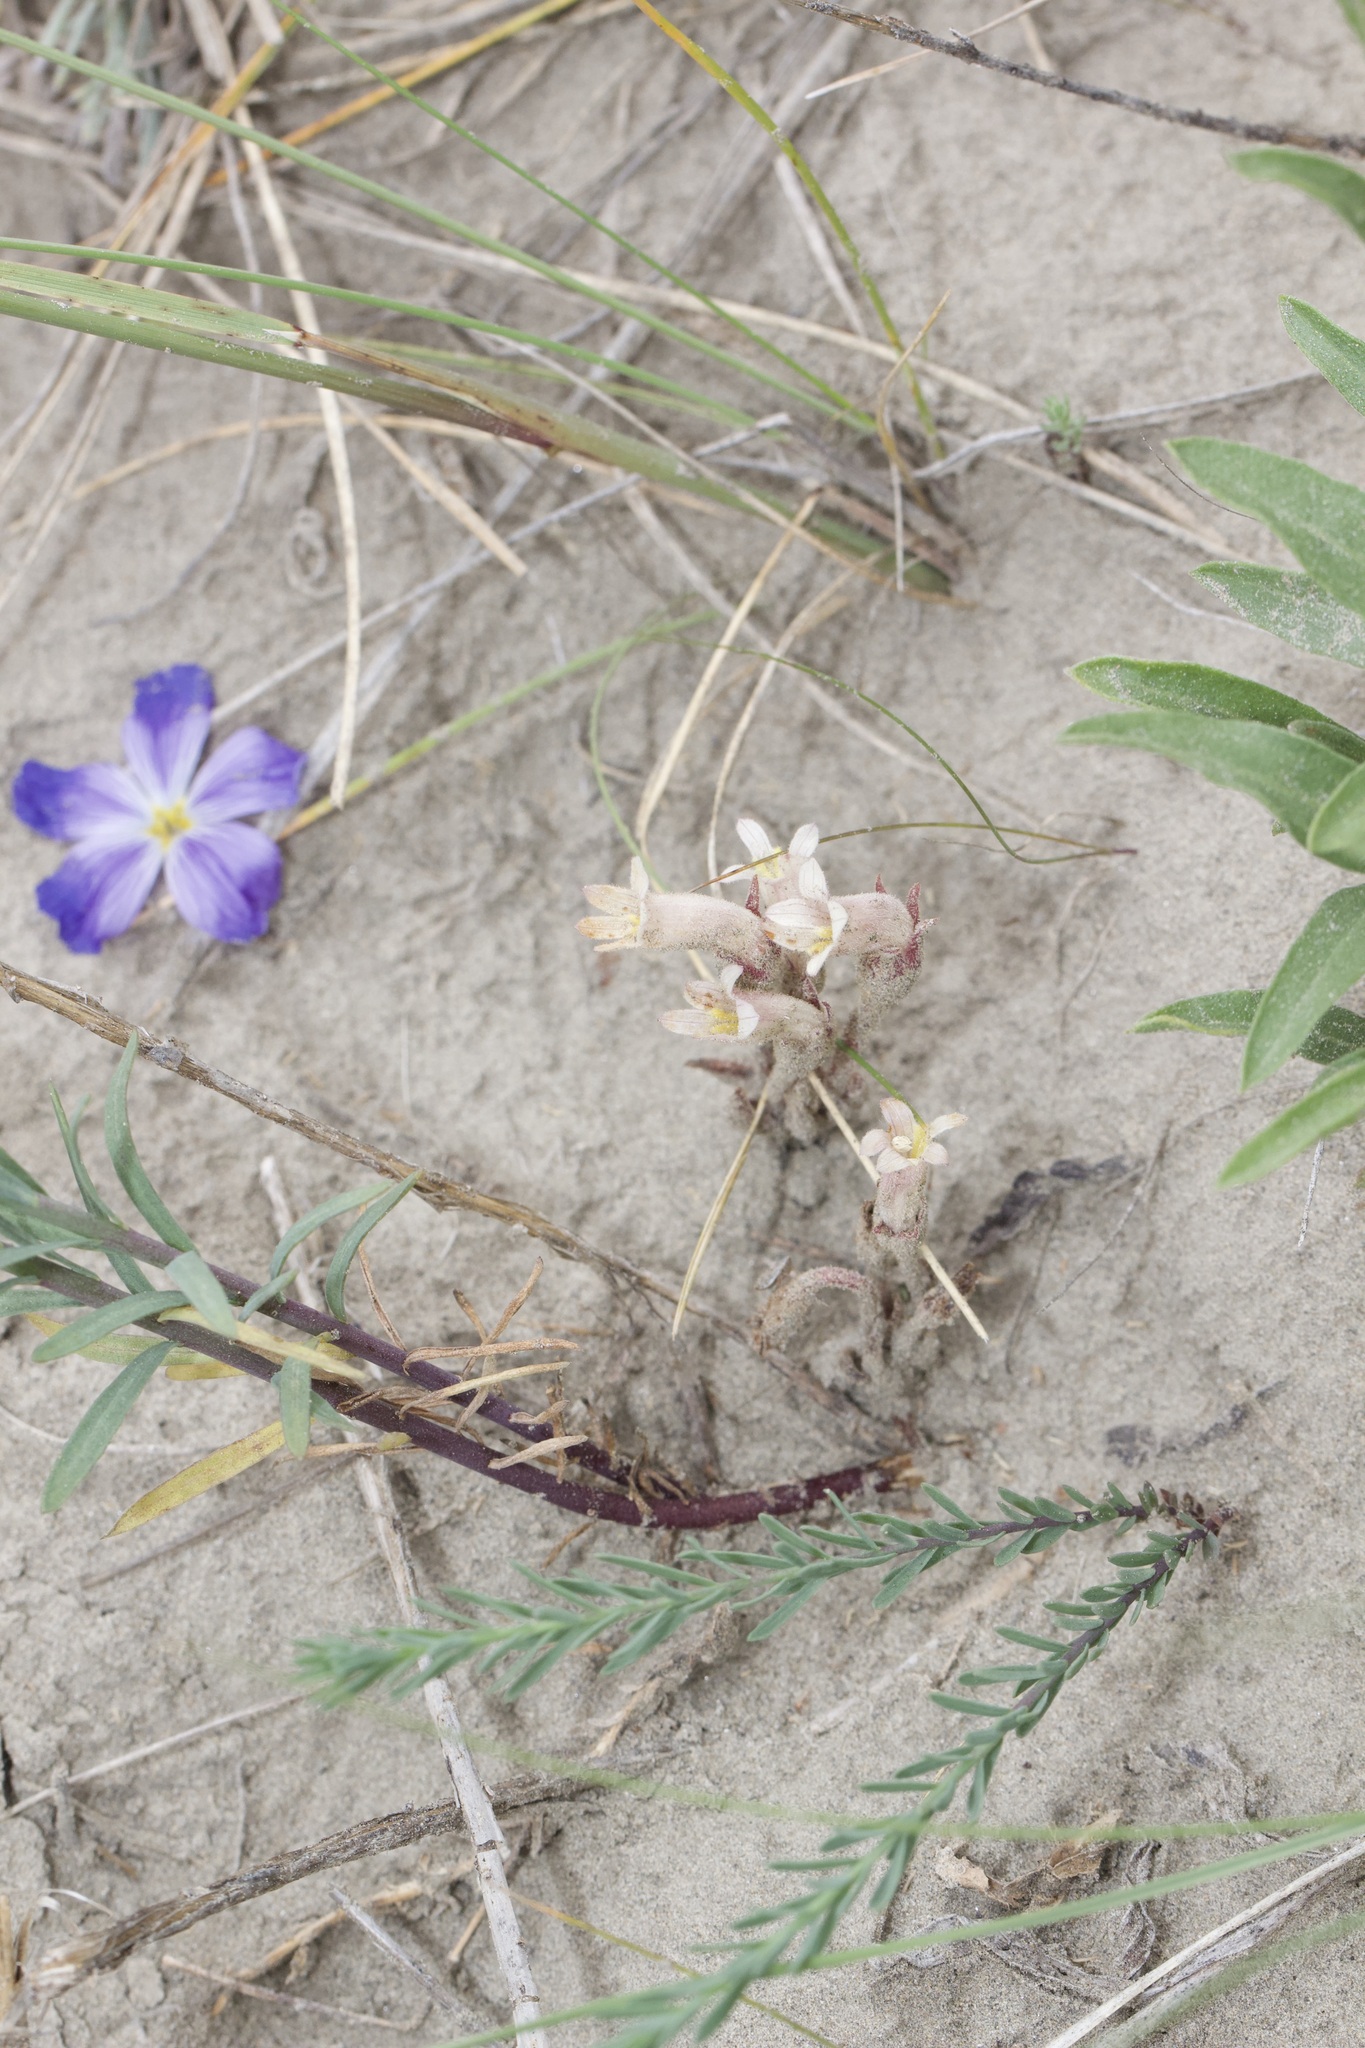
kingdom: Plantae
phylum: Tracheophyta
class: Magnoliopsida
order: Lamiales
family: Orobanchaceae
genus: Aphyllon
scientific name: Aphyllon fasciculatum
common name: Clustered broomrape
